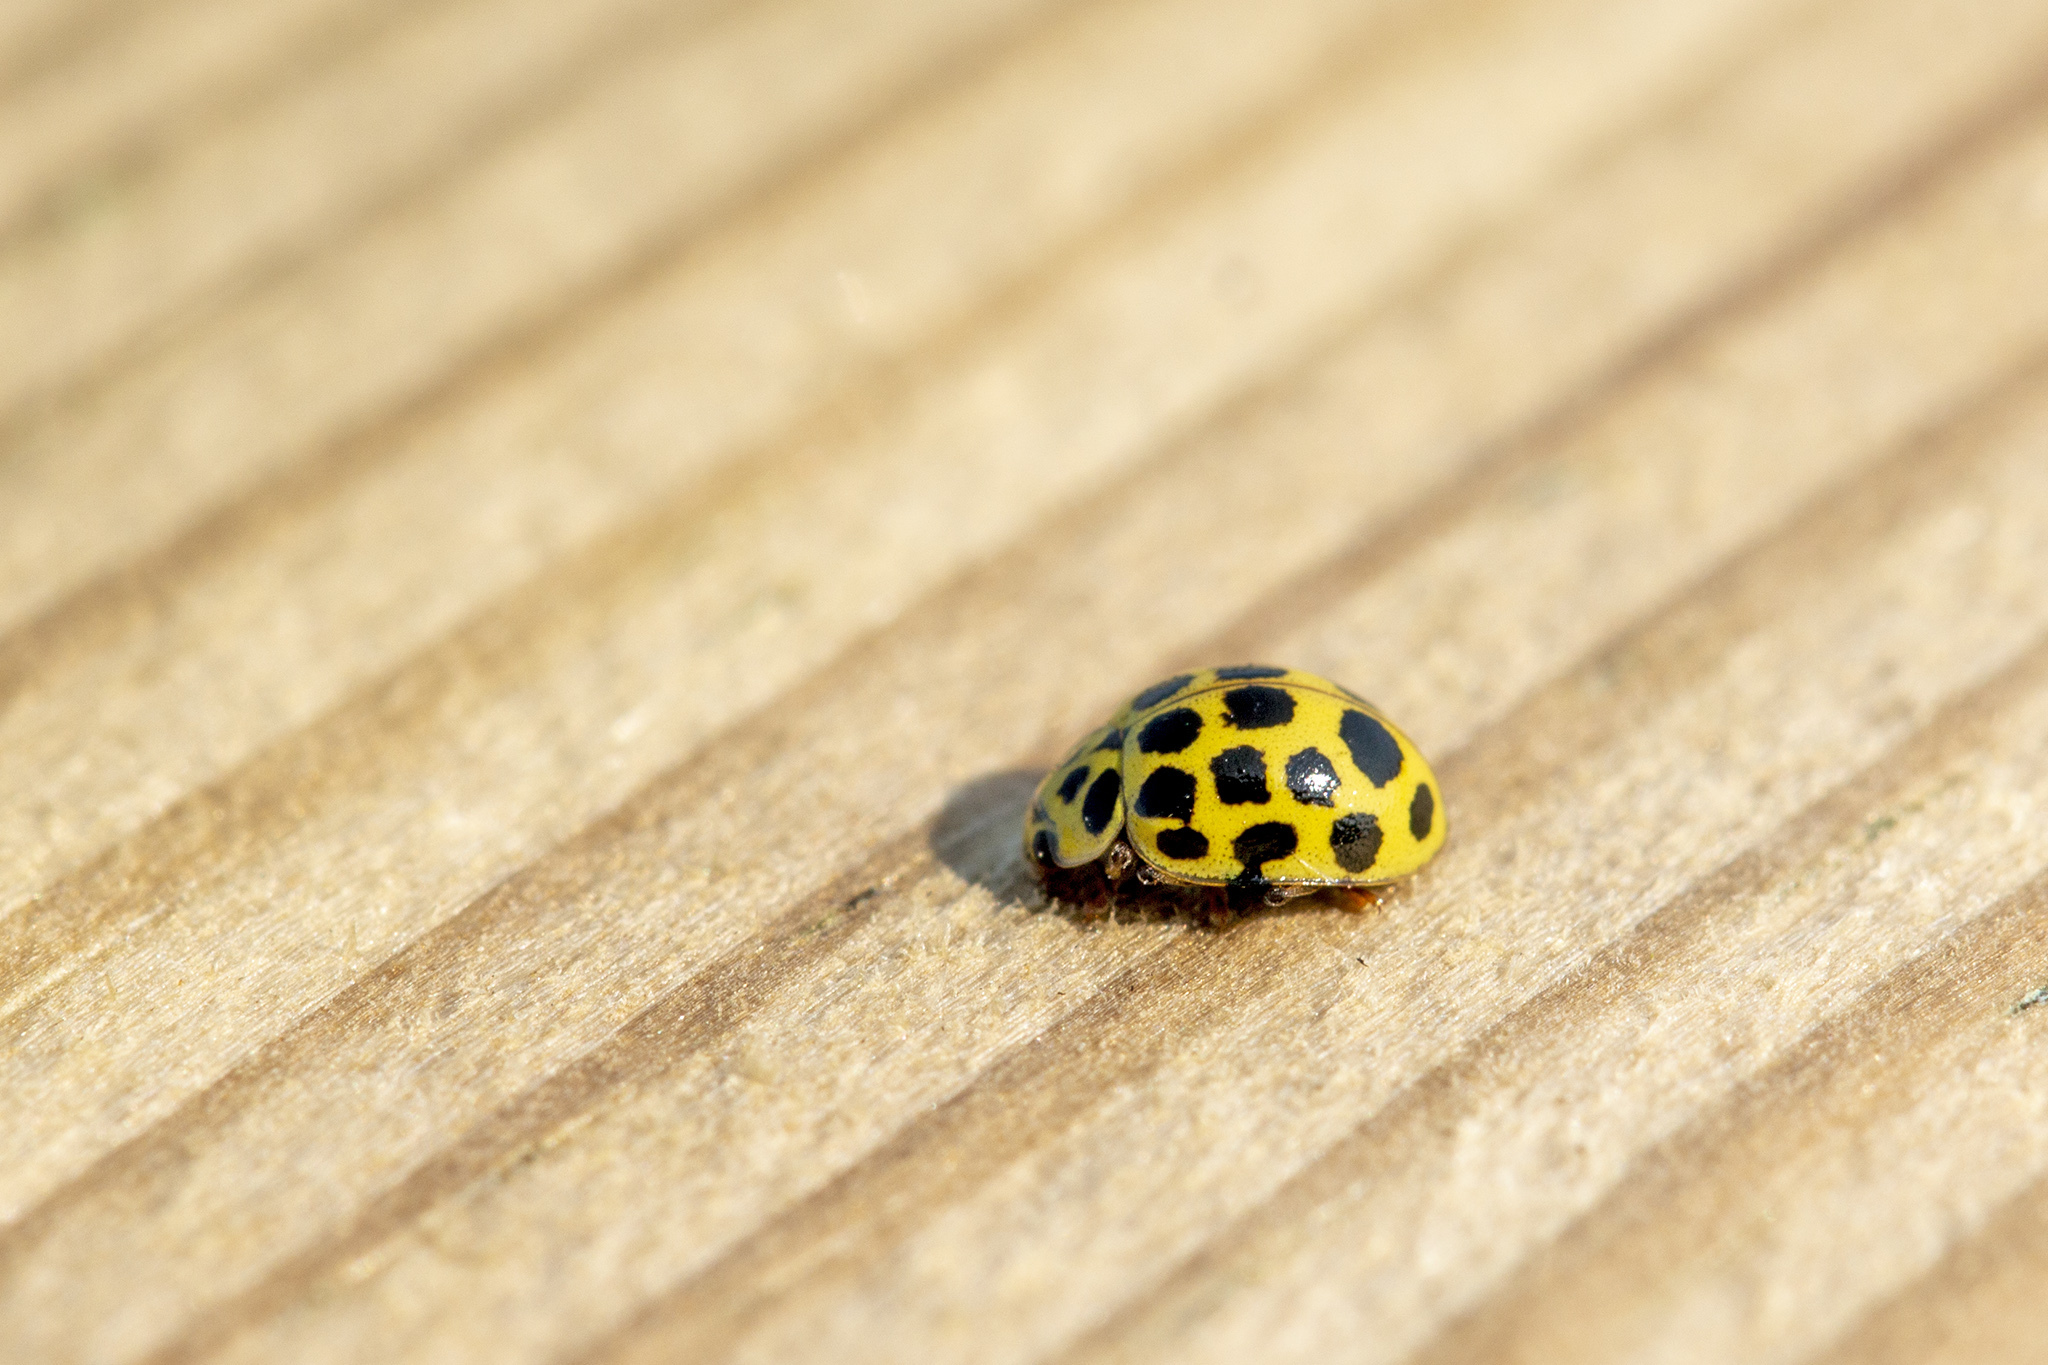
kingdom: Animalia
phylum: Arthropoda
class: Insecta
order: Coleoptera
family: Coccinellidae
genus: Psyllobora
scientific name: Psyllobora vigintiduopunctata
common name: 22-spot ladybird
